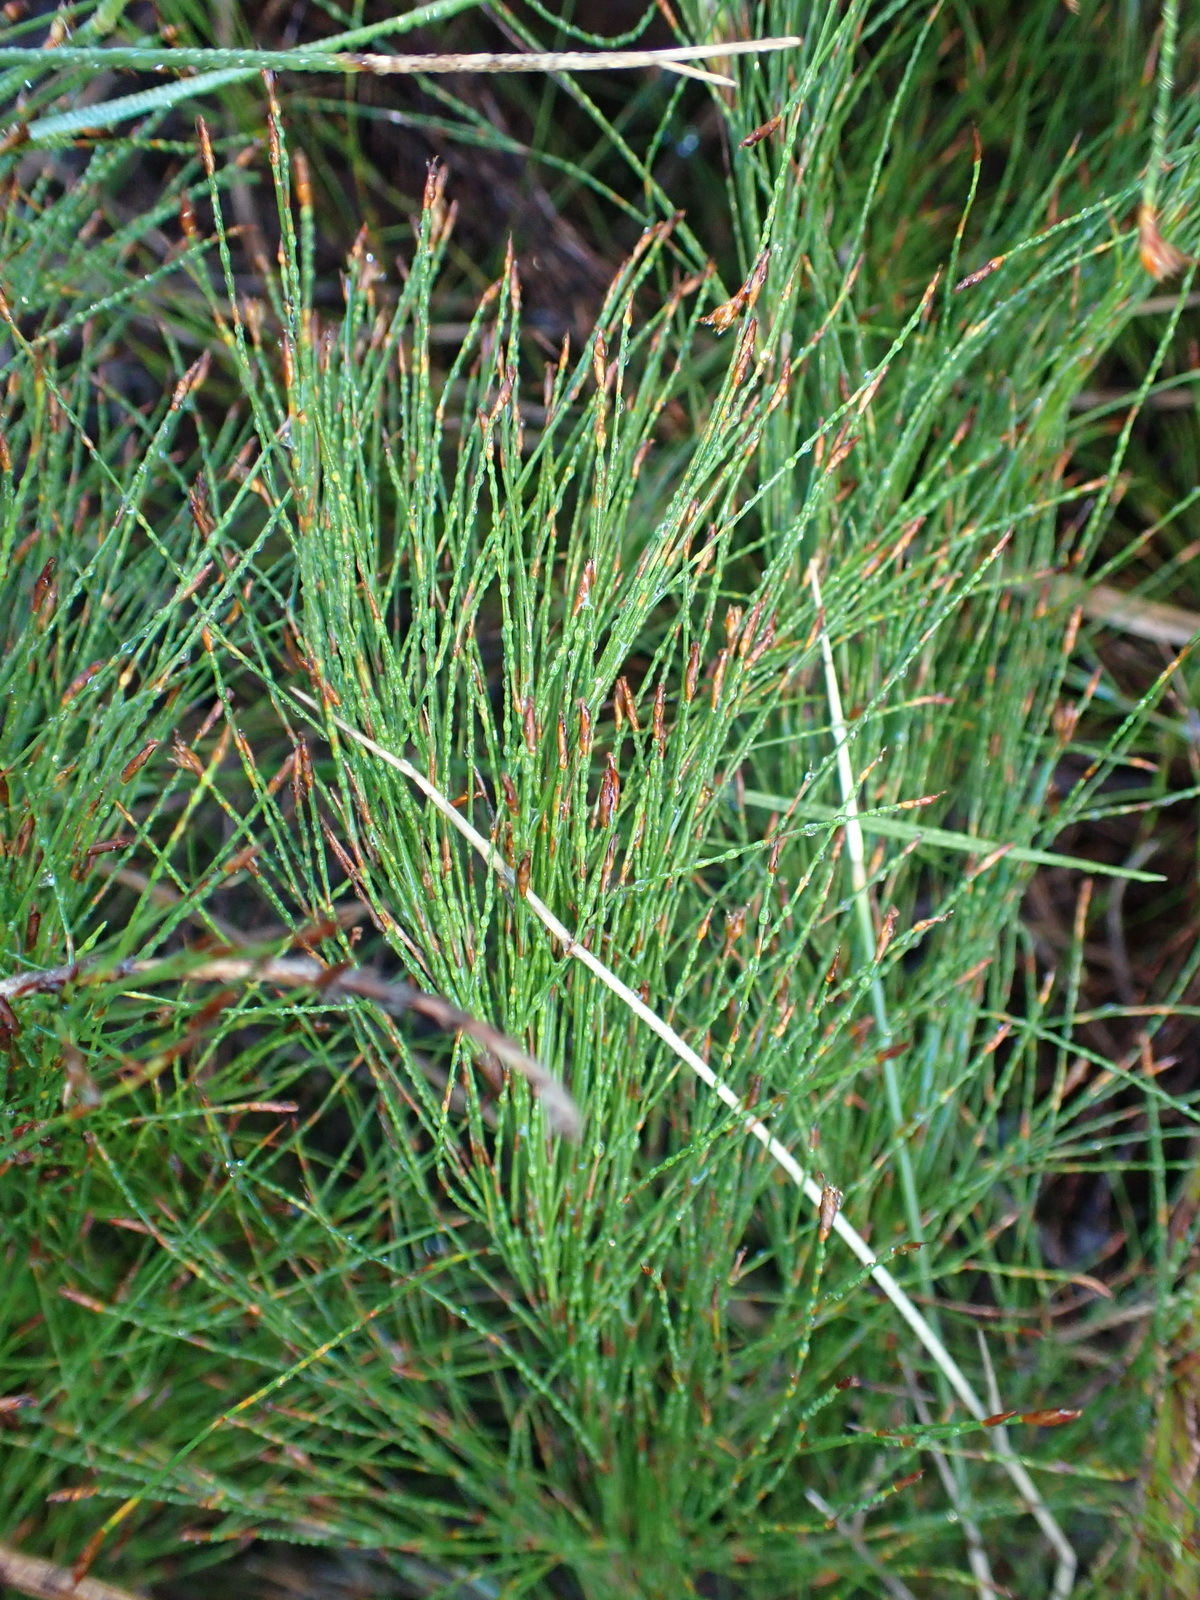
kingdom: Plantae
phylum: Tracheophyta
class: Liliopsida
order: Poales
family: Restionaceae
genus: Restio
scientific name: Restio leptoclados
